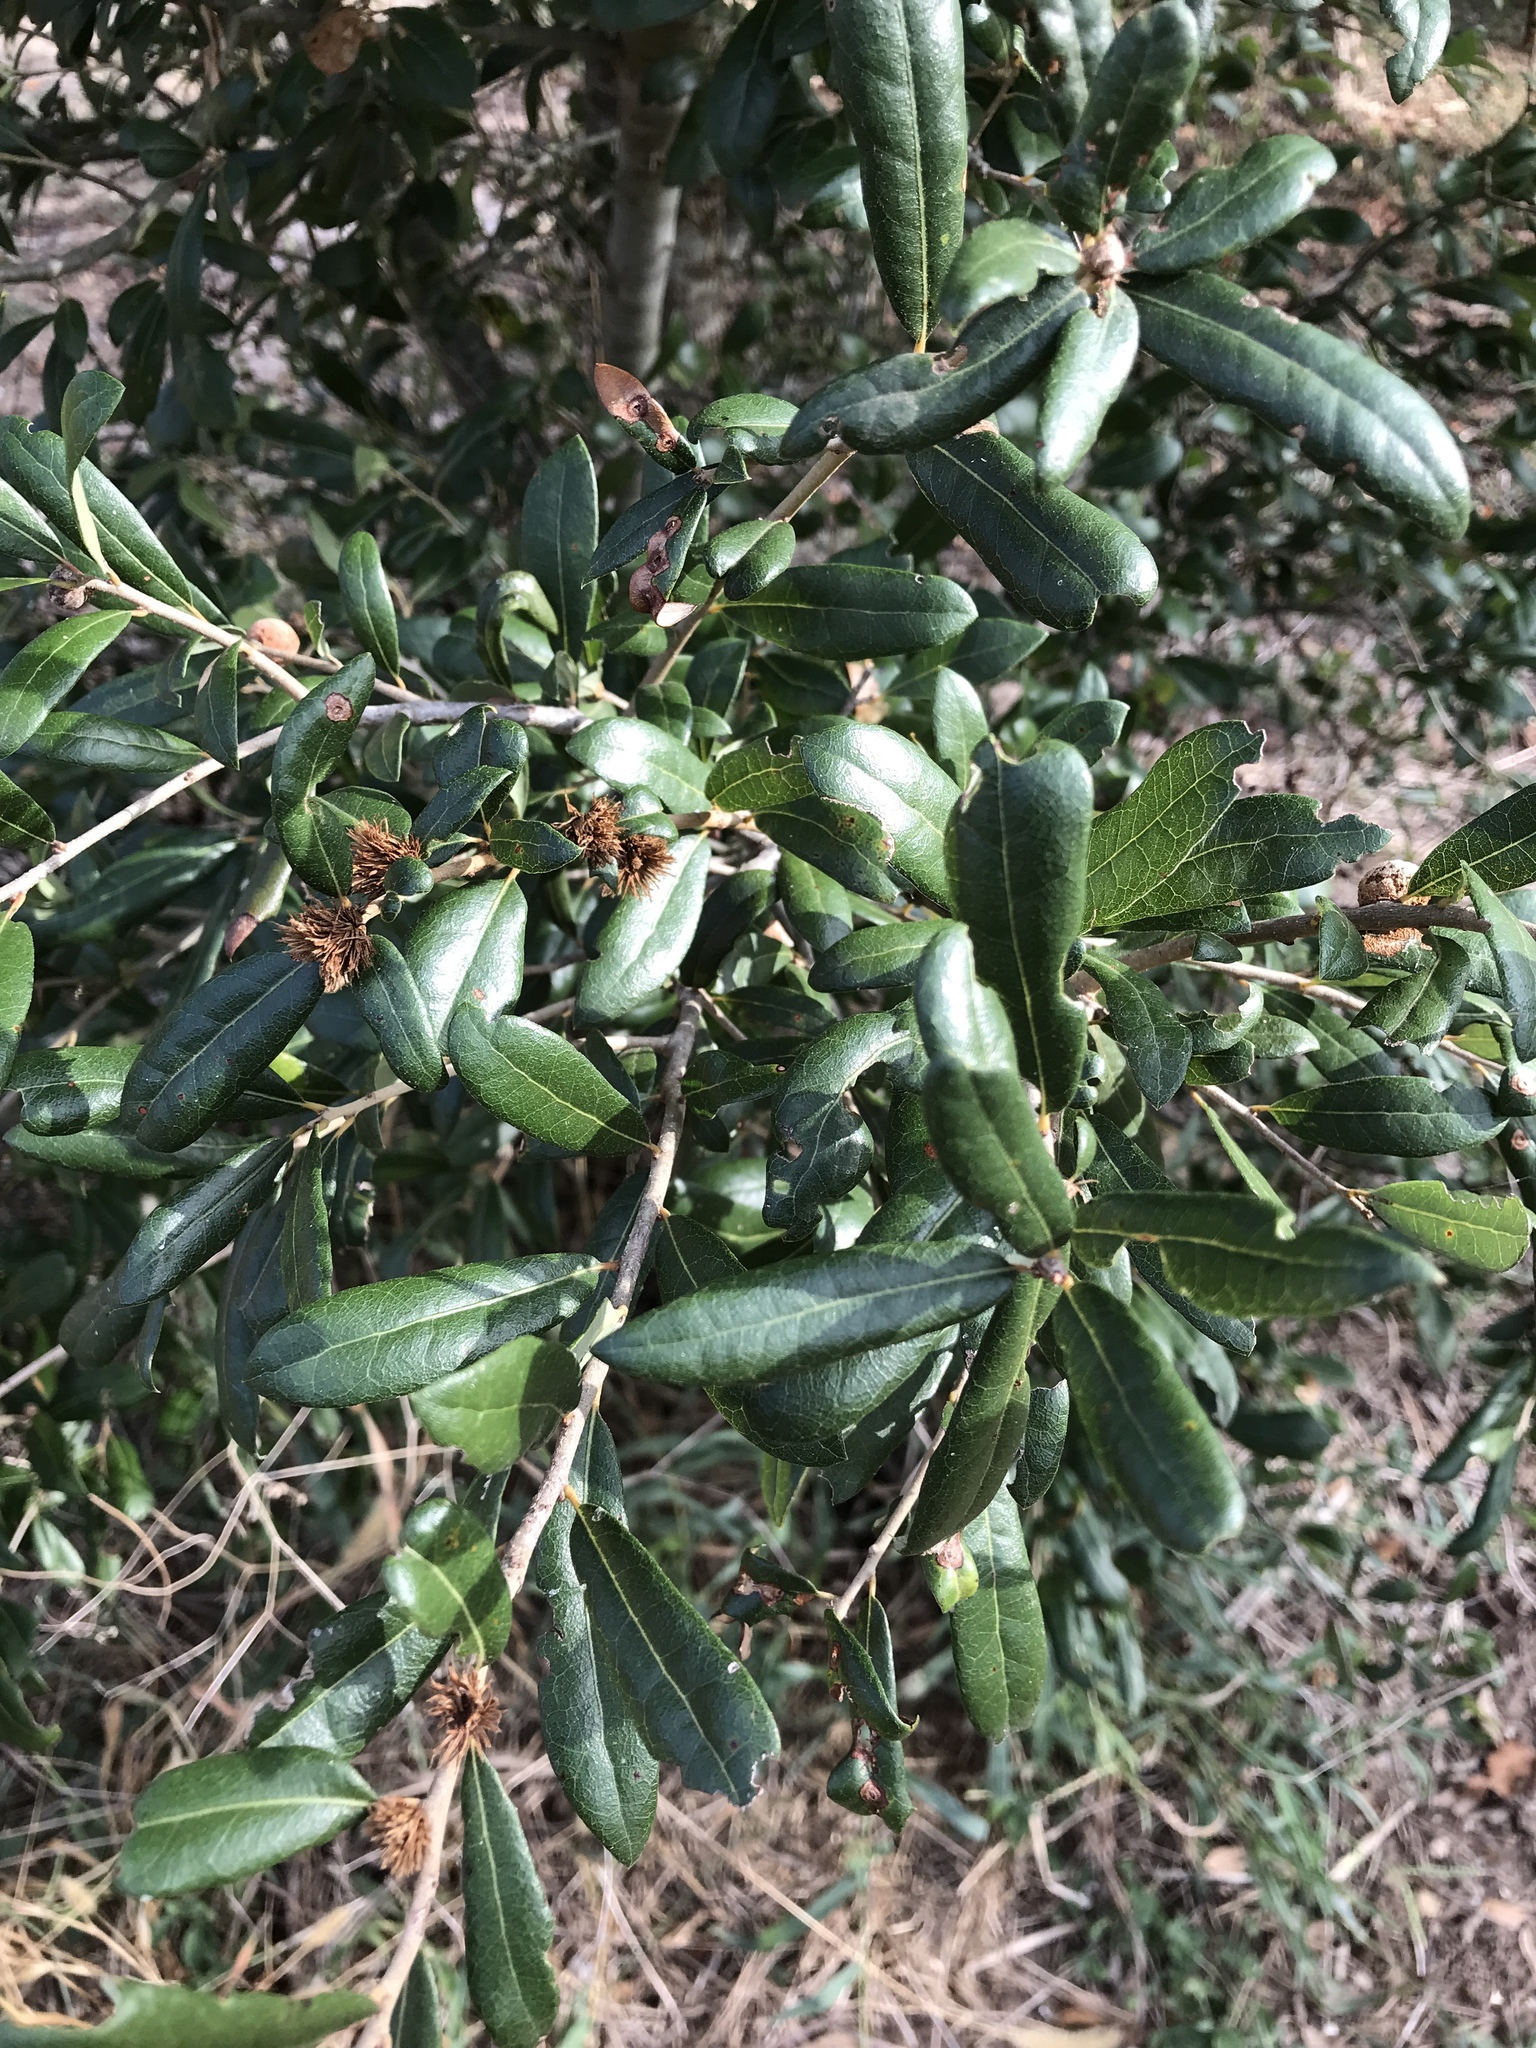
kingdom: Animalia
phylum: Arthropoda
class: Insecta
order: Hymenoptera
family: Cynipidae
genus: Andricus
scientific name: Andricus quercusfoliatus
